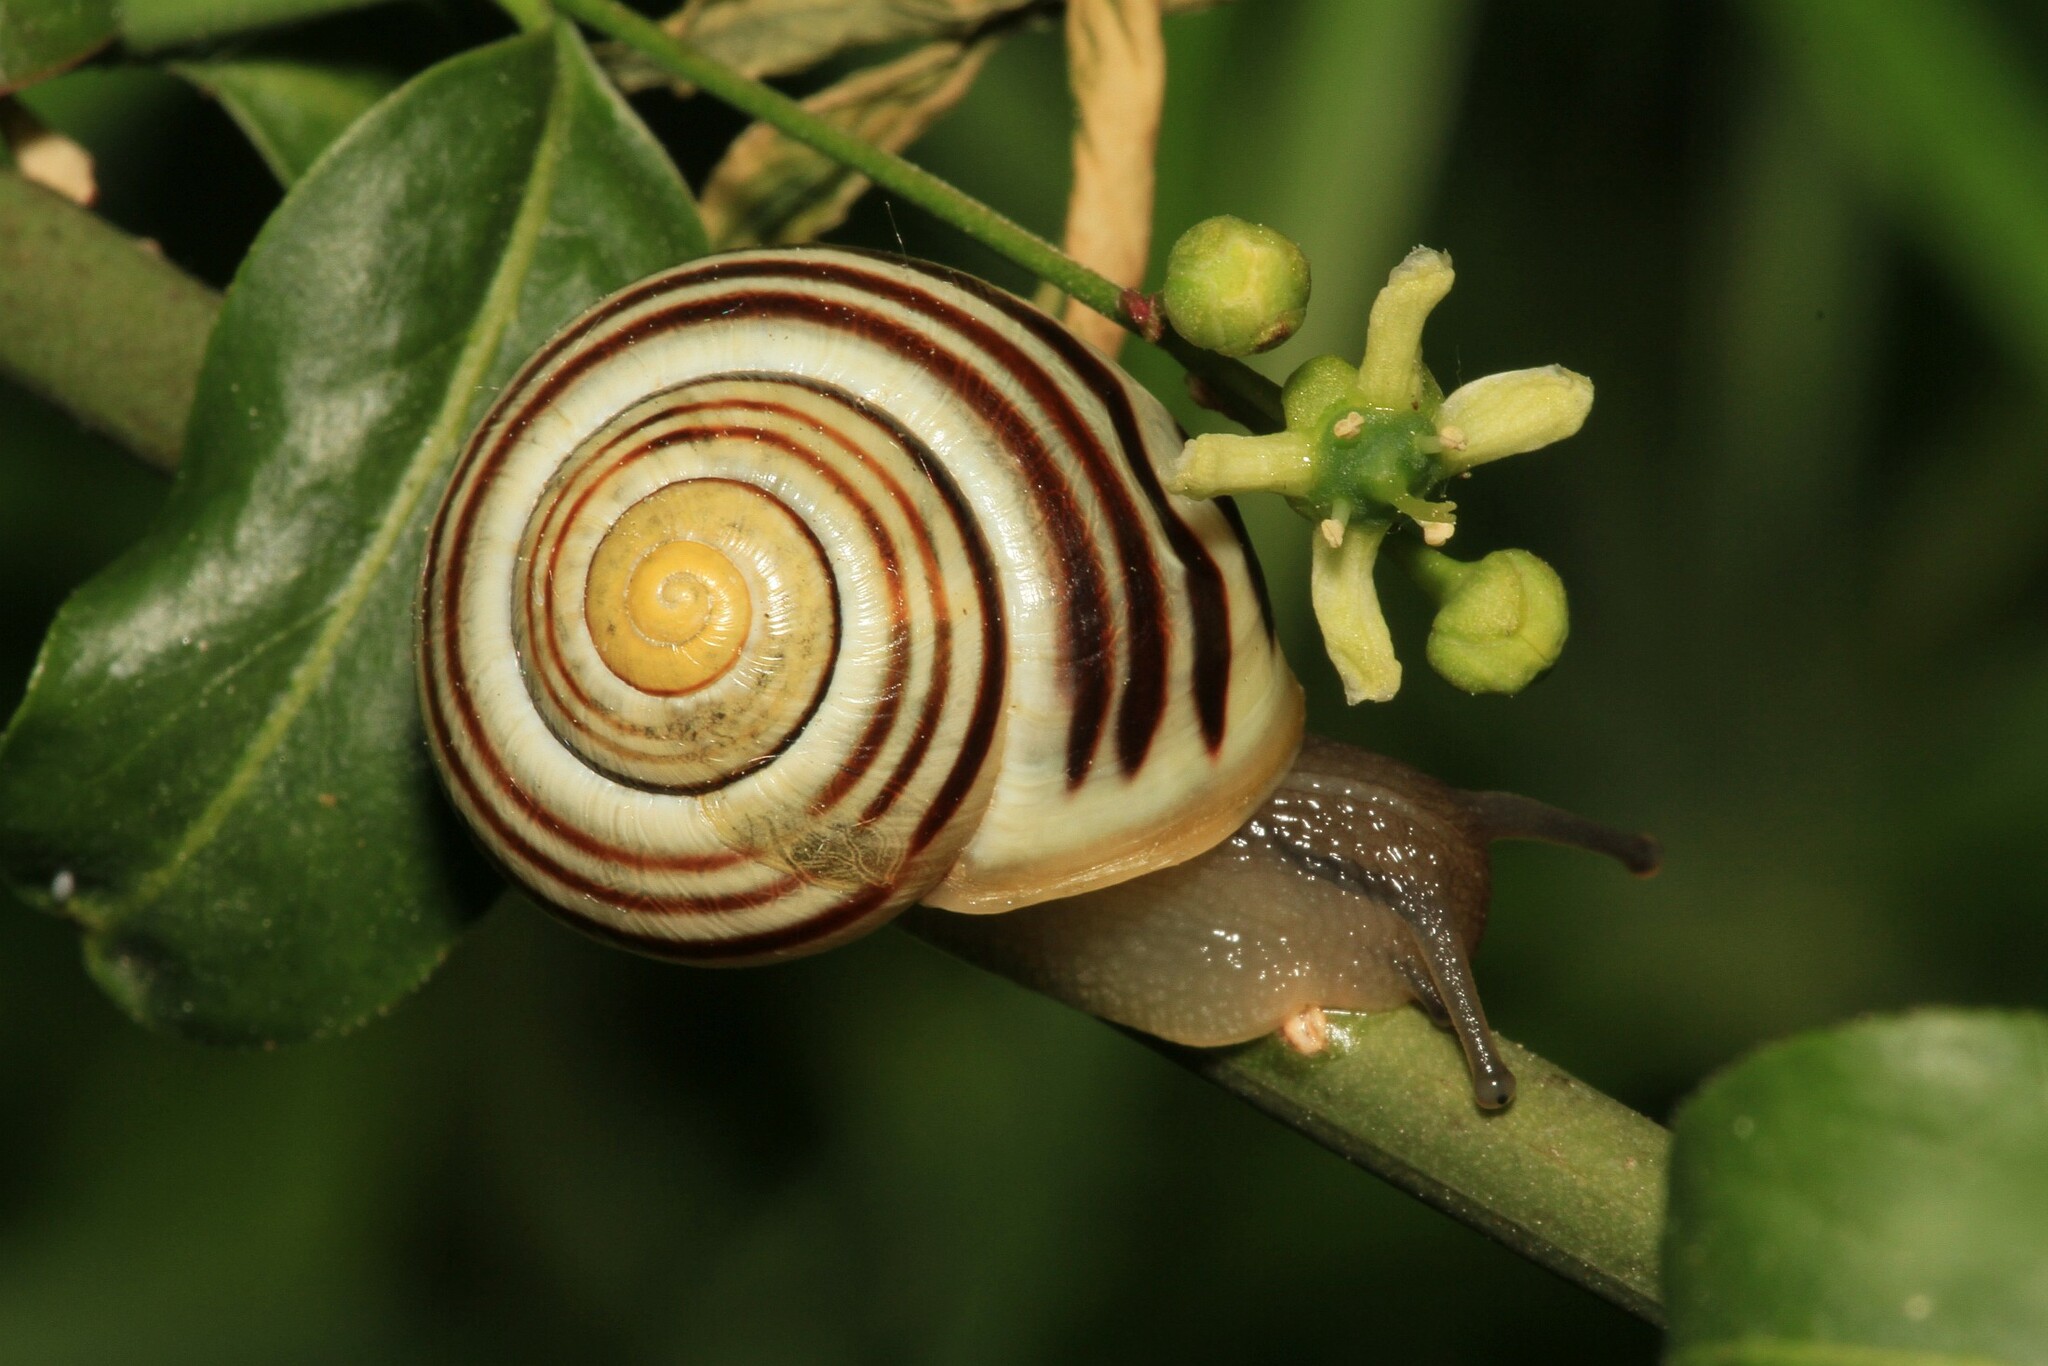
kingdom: Animalia
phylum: Mollusca
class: Gastropoda
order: Stylommatophora
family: Helicidae
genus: Cepaea
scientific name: Cepaea hortensis
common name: White-lip gardensnail
